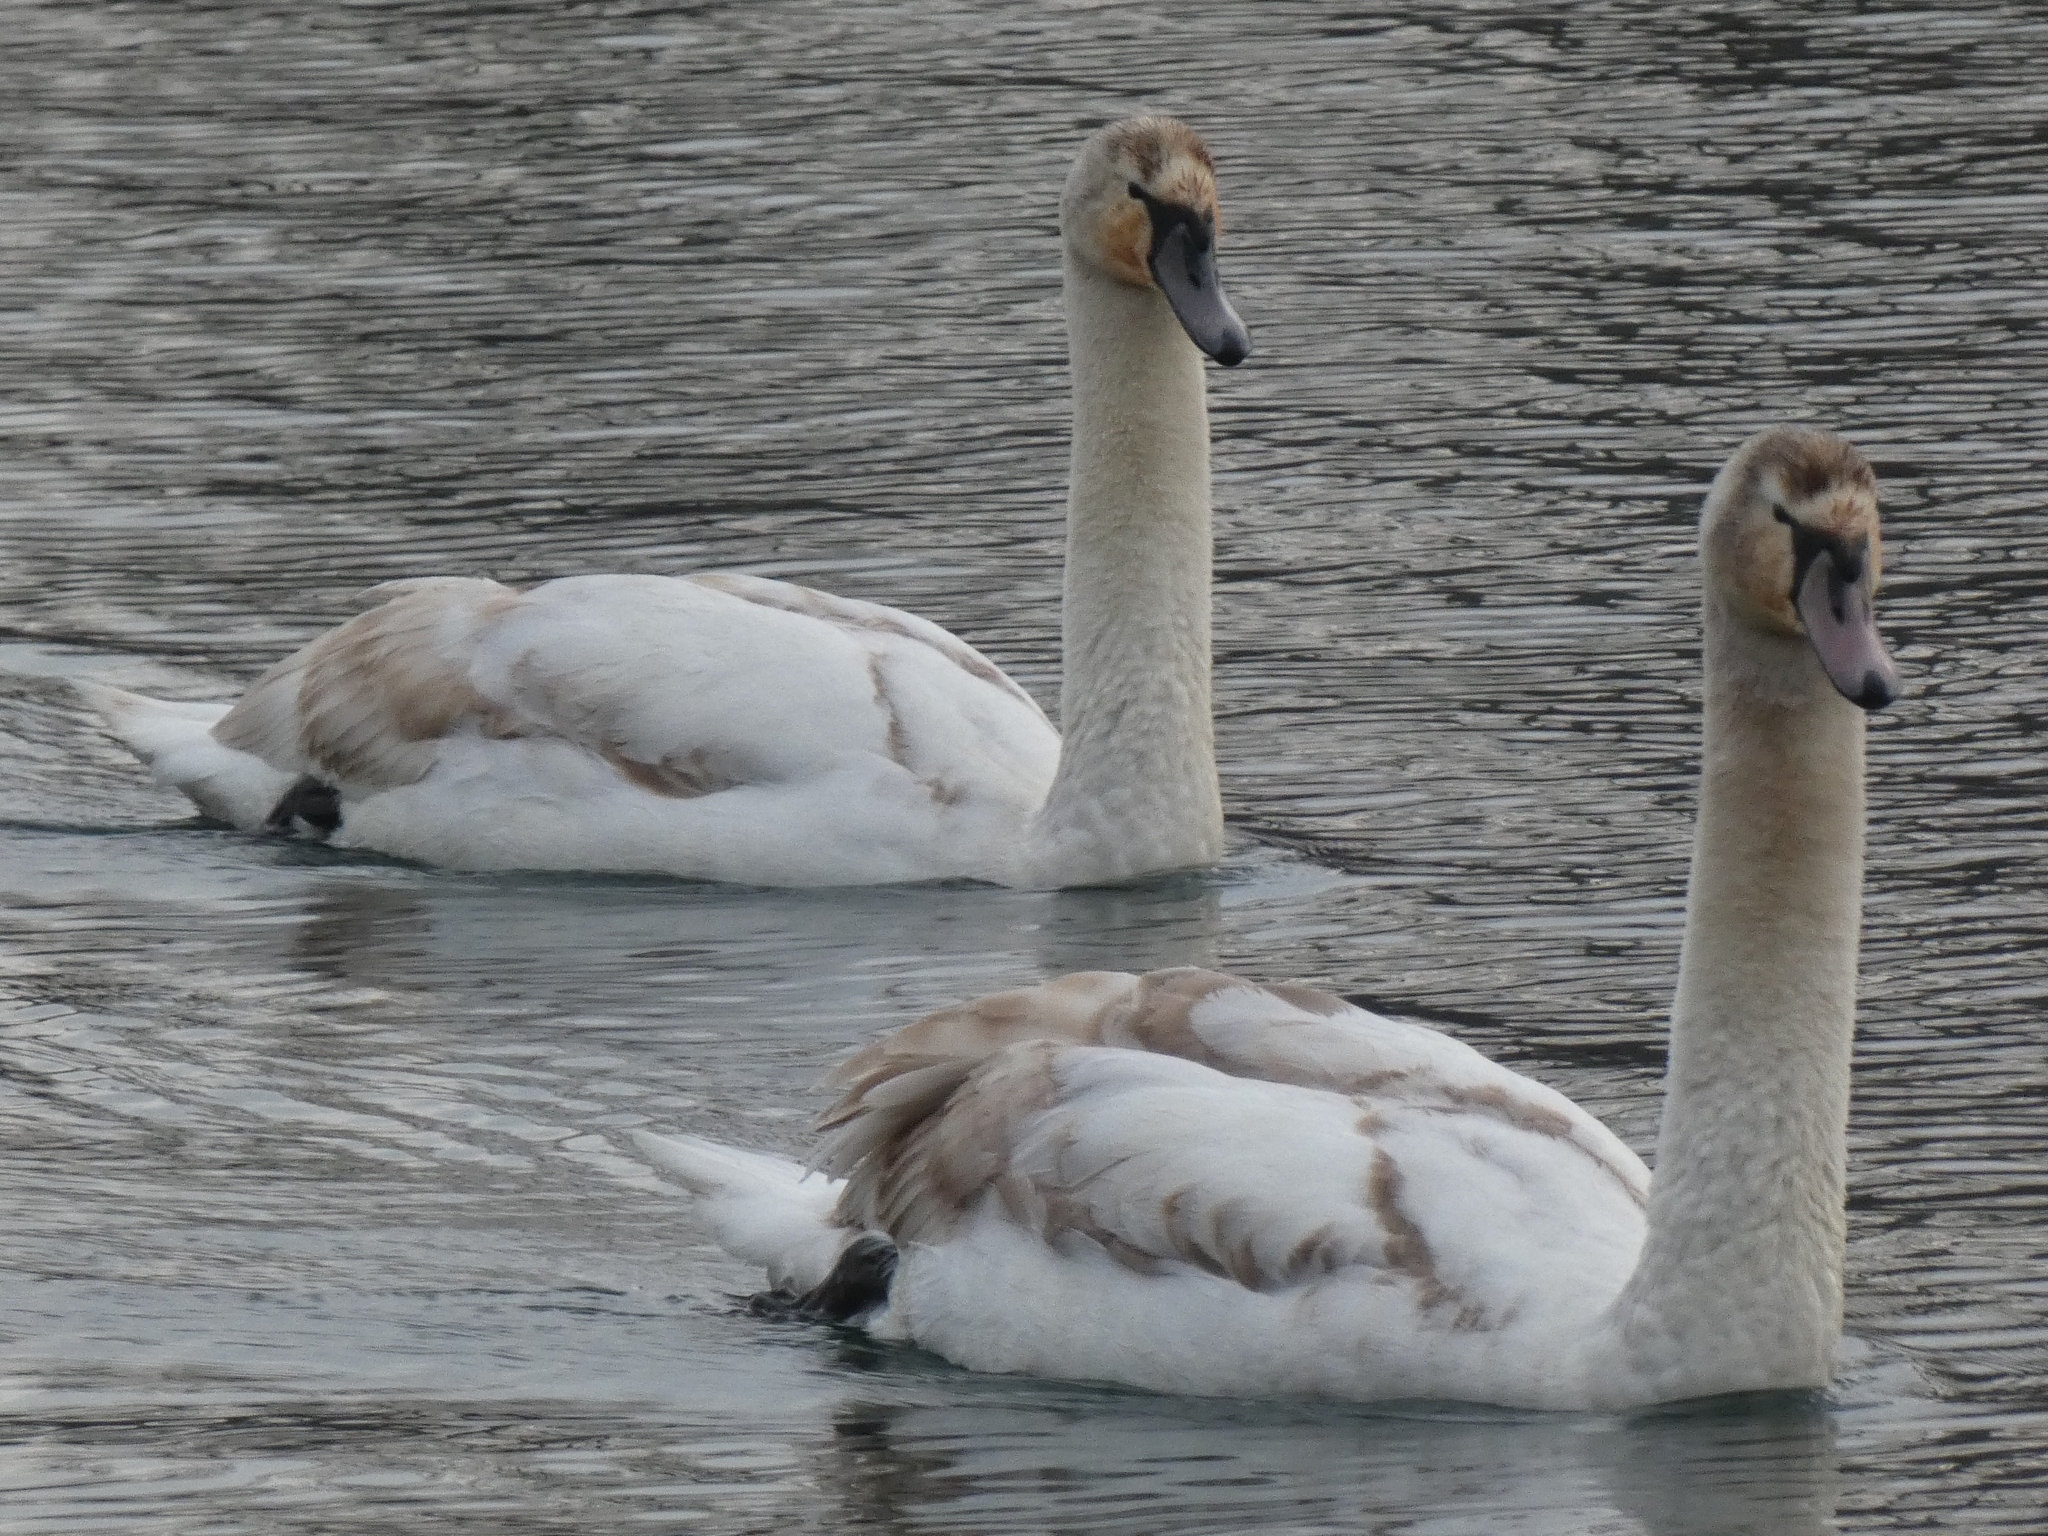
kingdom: Animalia
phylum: Chordata
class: Aves
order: Anseriformes
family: Anatidae
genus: Cygnus
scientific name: Cygnus olor
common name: Mute swan
